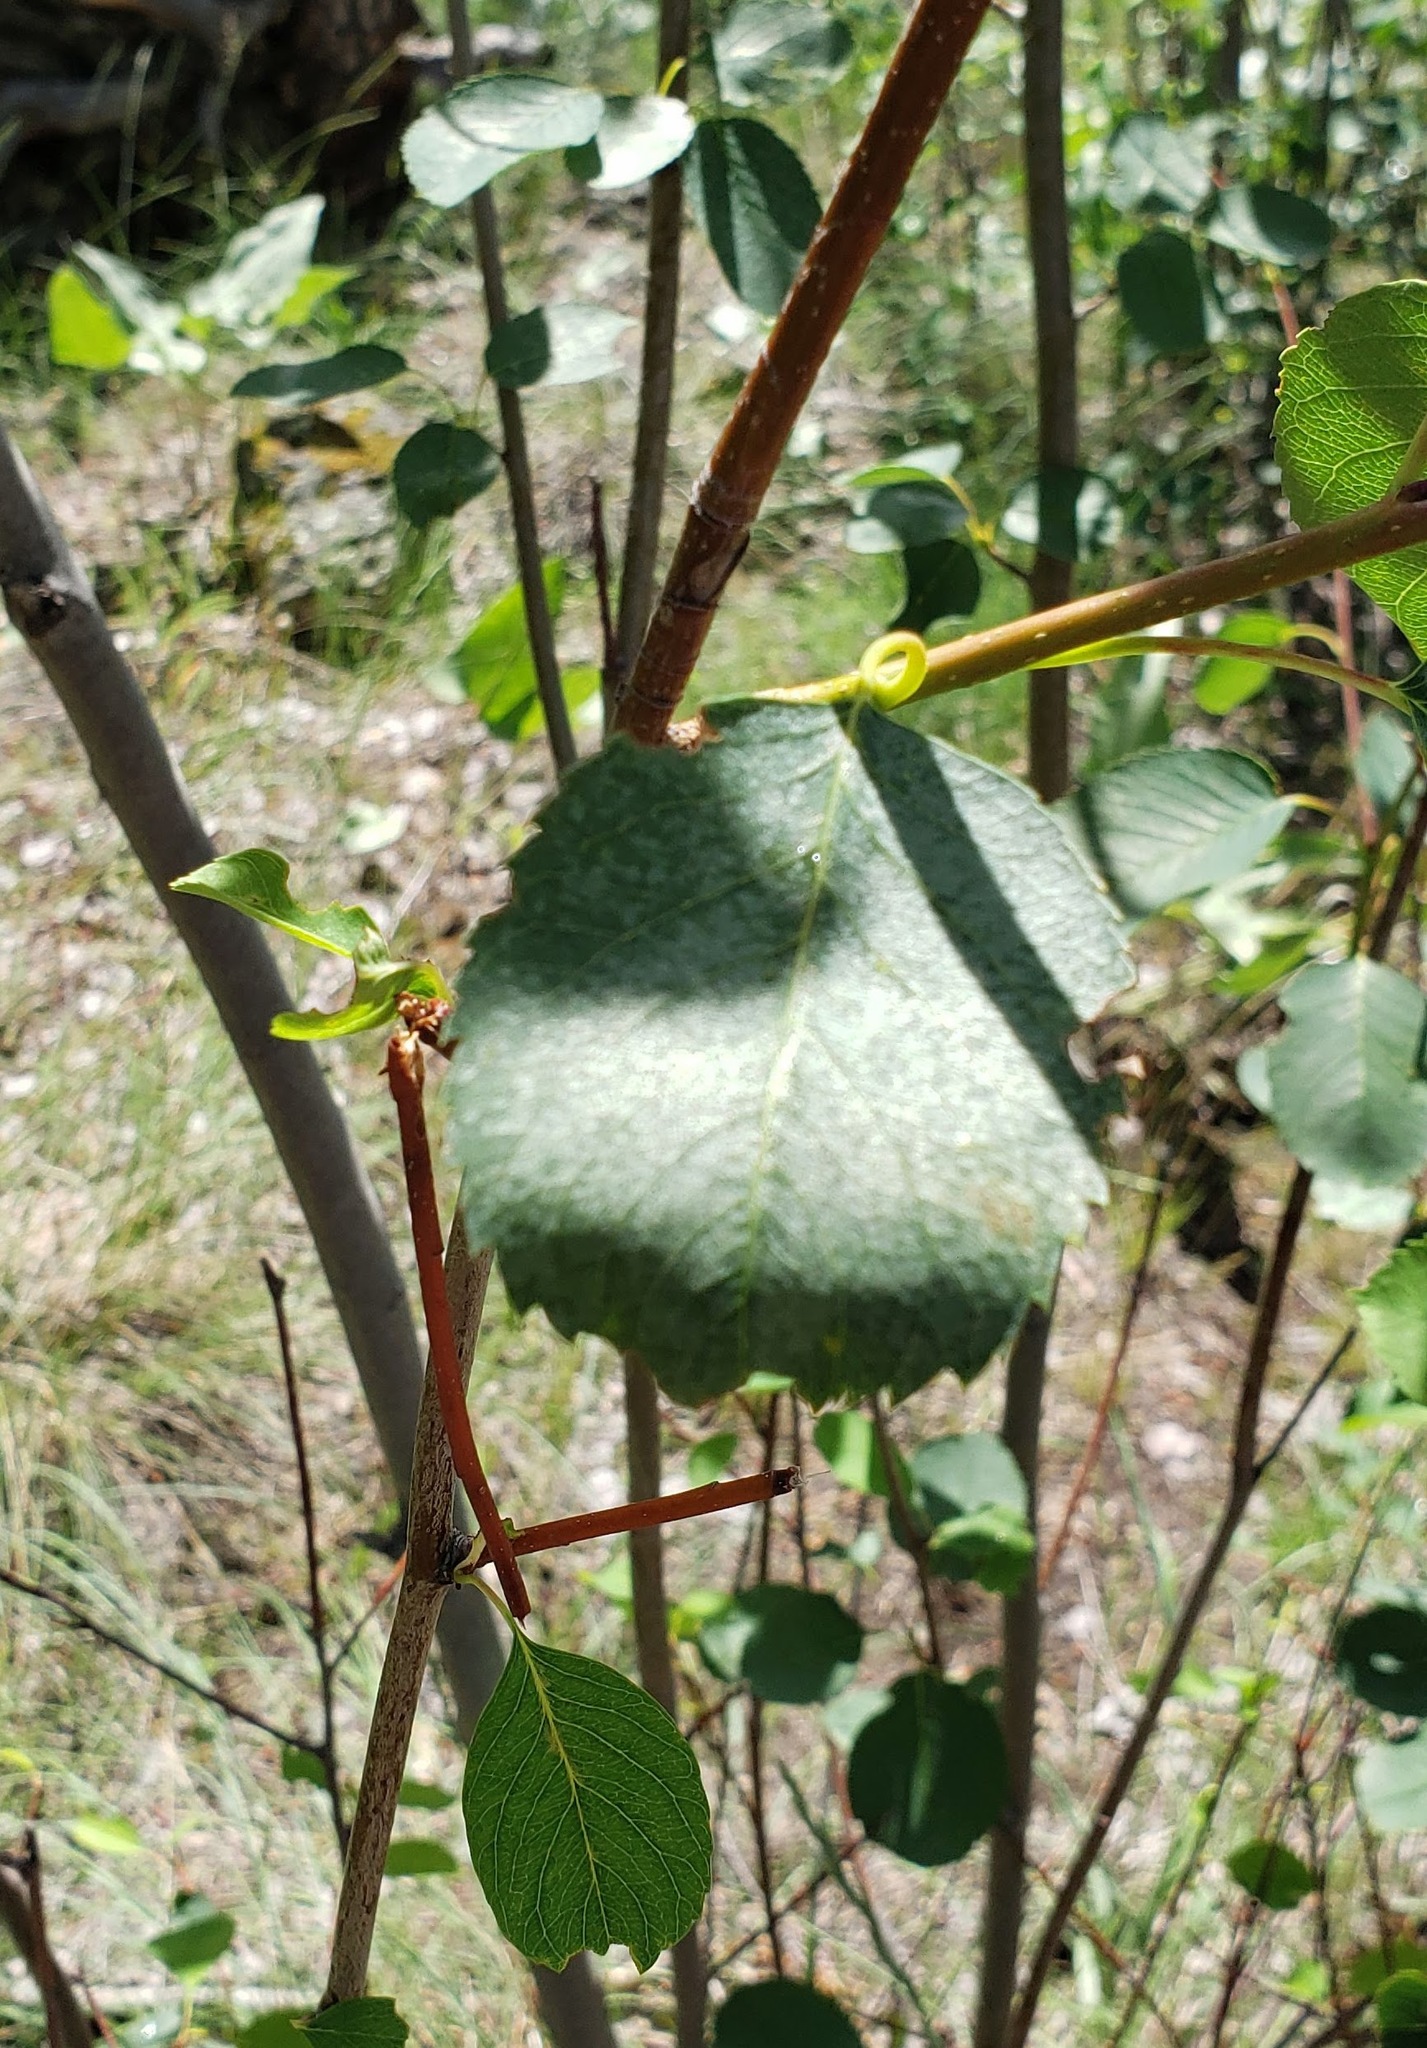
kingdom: Plantae
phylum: Tracheophyta
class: Magnoliopsida
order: Rosales
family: Rosaceae
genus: Amelanchier
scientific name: Amelanchier alnifolia
